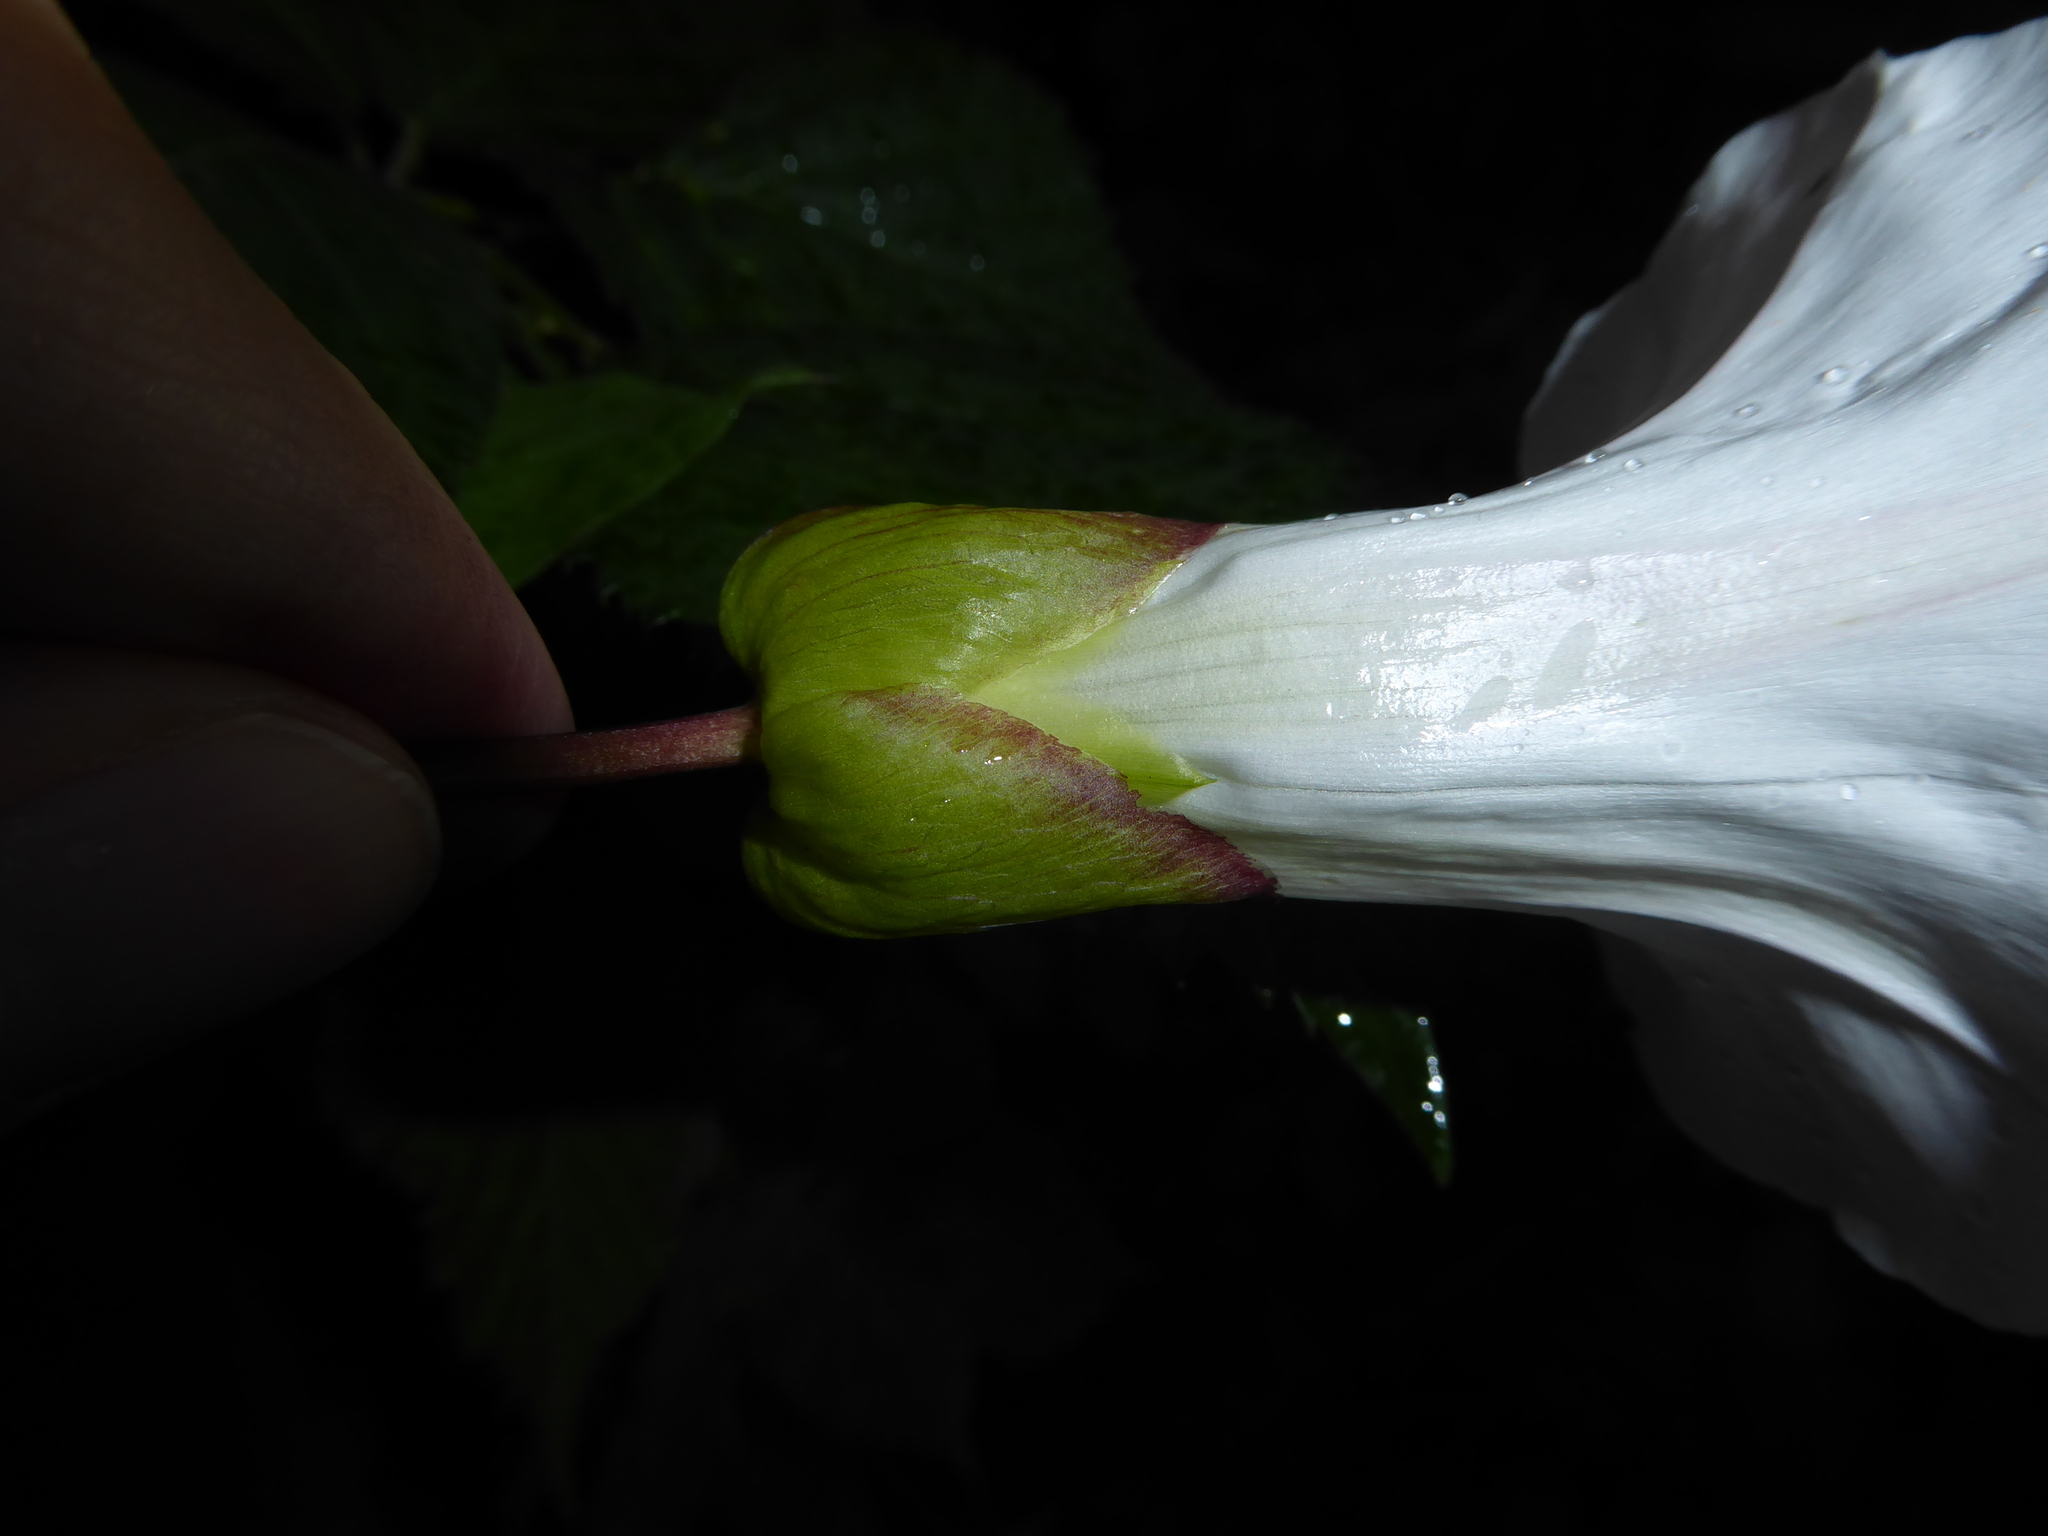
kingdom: Plantae
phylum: Tracheophyta
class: Magnoliopsida
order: Solanales
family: Convolvulaceae
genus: Calystegia
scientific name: Calystegia lucana
